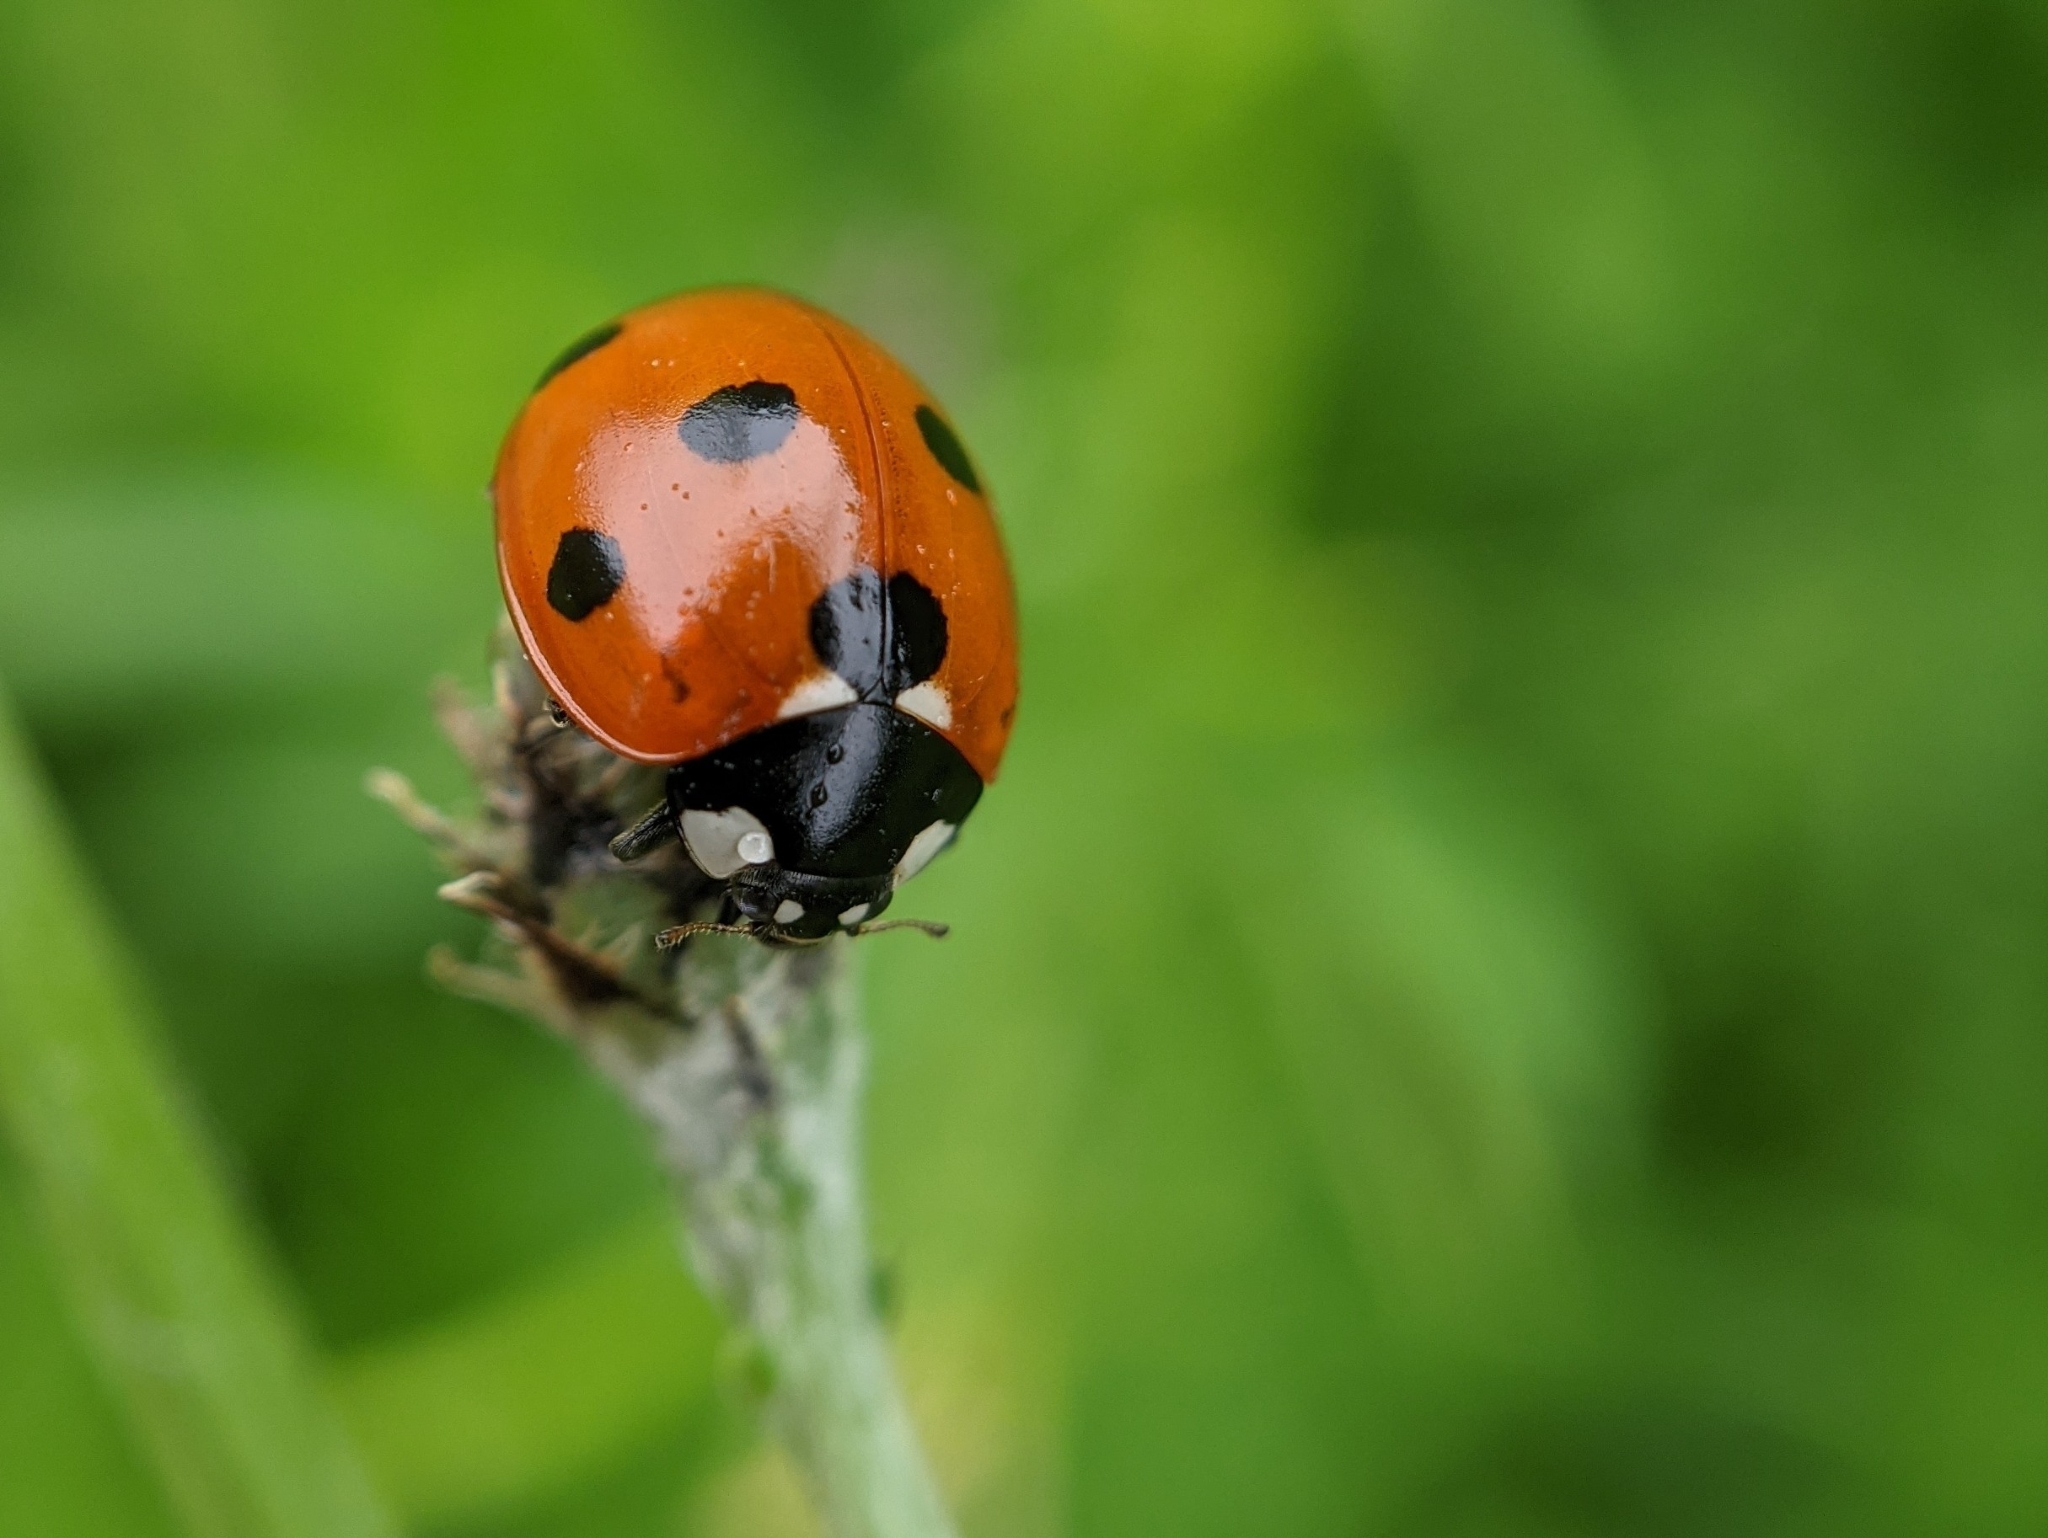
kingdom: Animalia
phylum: Arthropoda
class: Insecta
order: Coleoptera
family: Coccinellidae
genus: Coccinella
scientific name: Coccinella septempunctata
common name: Sevenspotted lady beetle
